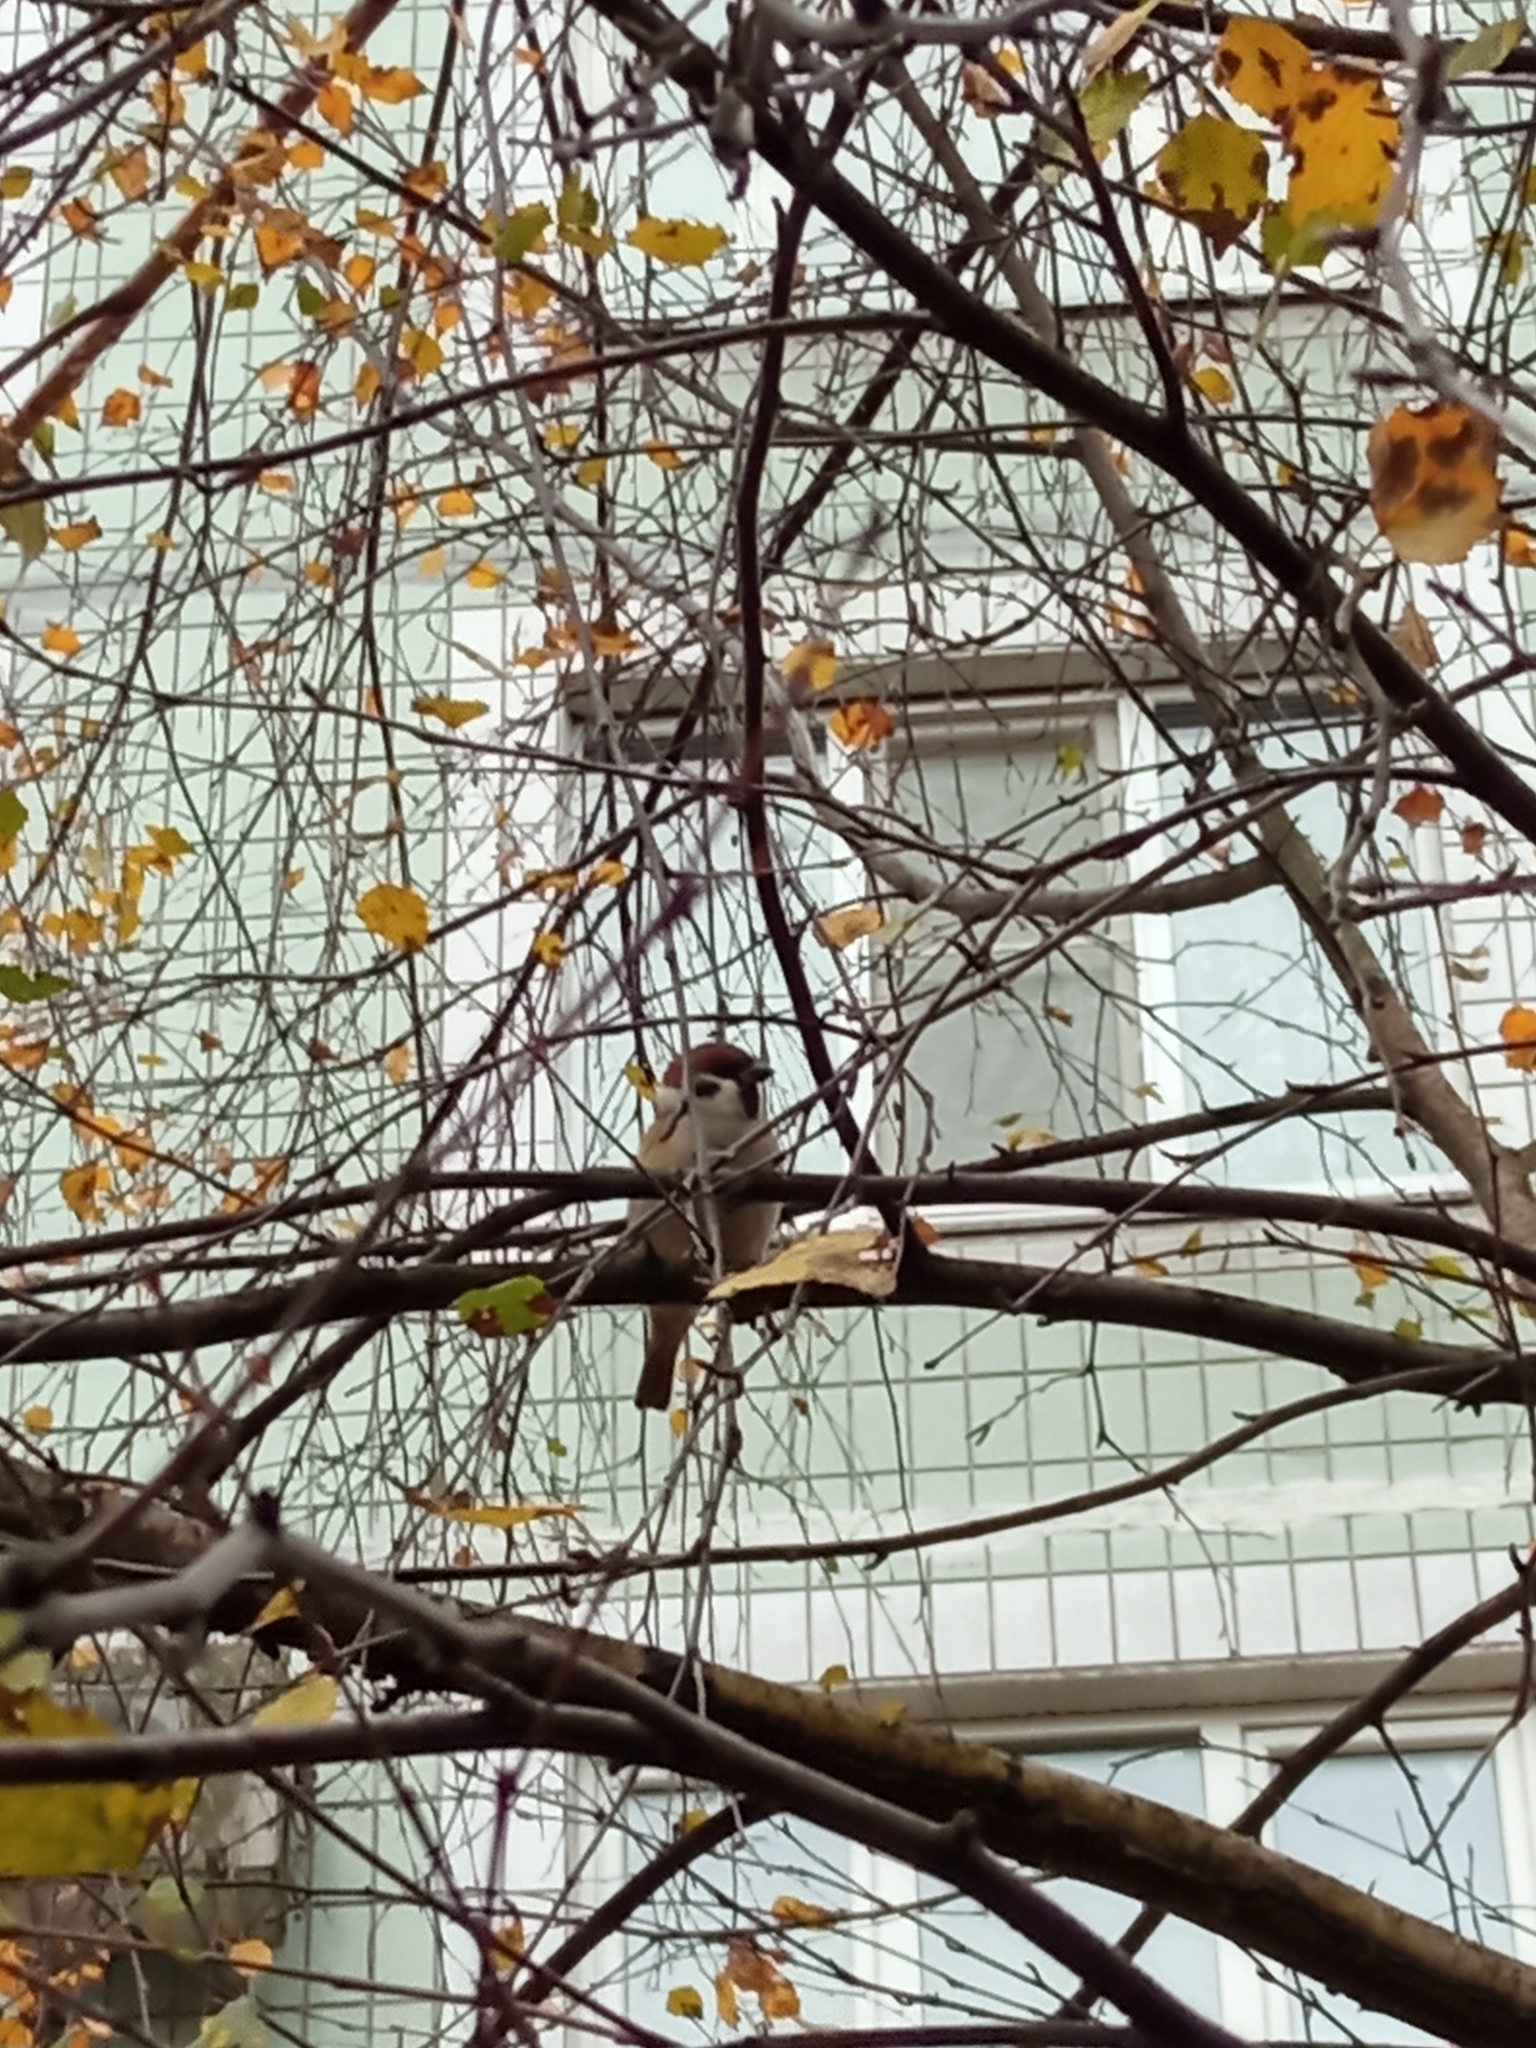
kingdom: Animalia
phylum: Chordata
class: Aves
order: Passeriformes
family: Passeridae
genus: Passer
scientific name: Passer montanus
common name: Eurasian tree sparrow
